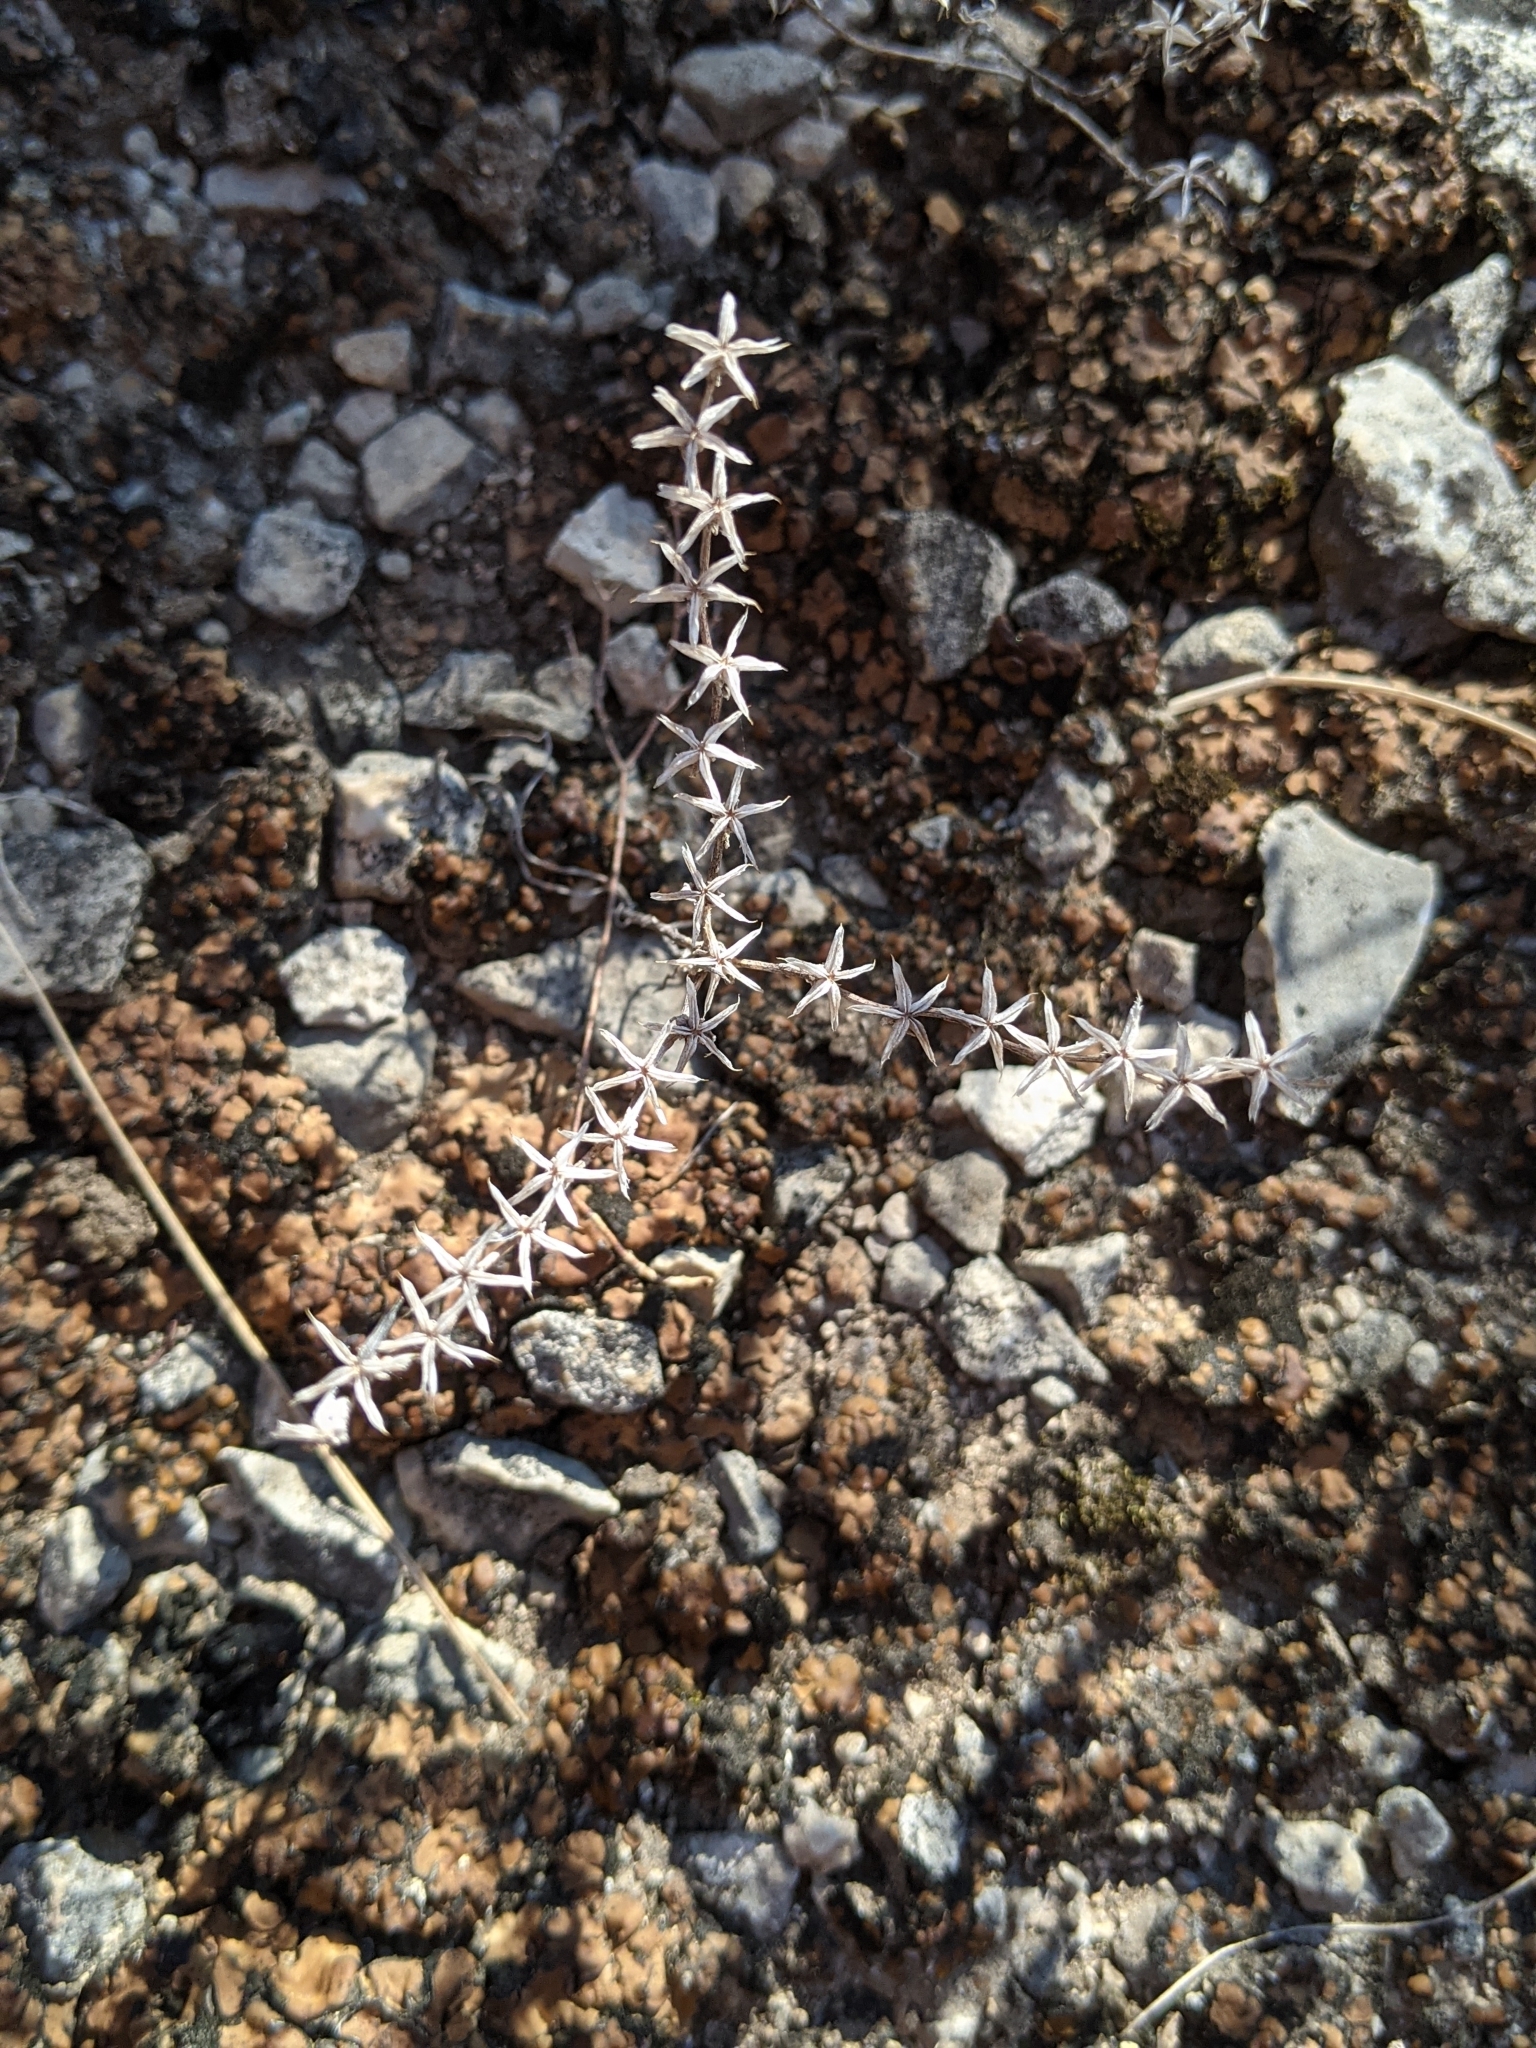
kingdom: Plantae
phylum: Tracheophyta
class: Magnoliopsida
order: Saxifragales
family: Crassulaceae
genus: Sedum
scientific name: Sedum pulchellum
